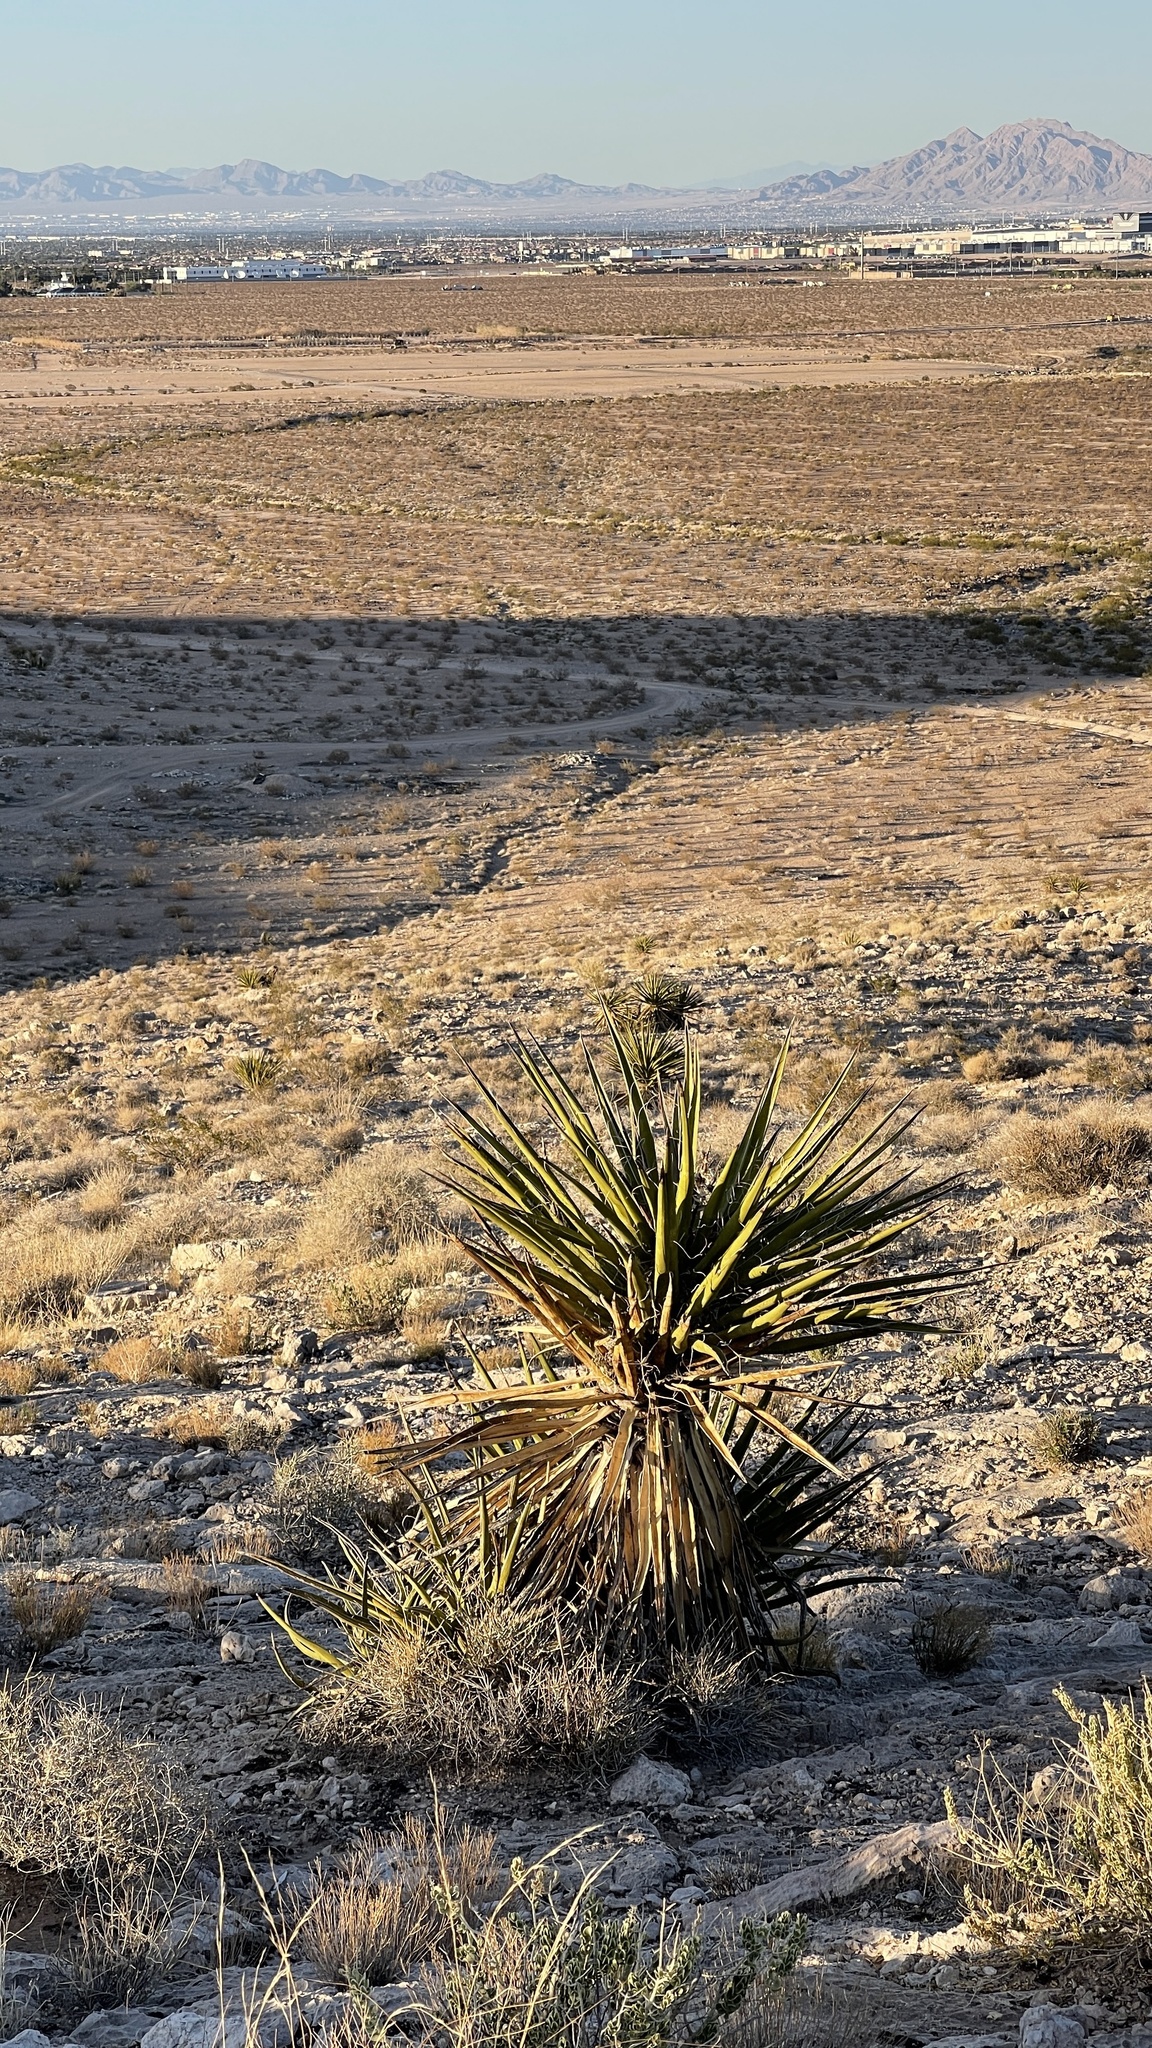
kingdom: Plantae
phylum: Tracheophyta
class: Liliopsida
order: Asparagales
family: Asparagaceae
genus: Yucca
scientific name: Yucca schidigera
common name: Mojave yucca
